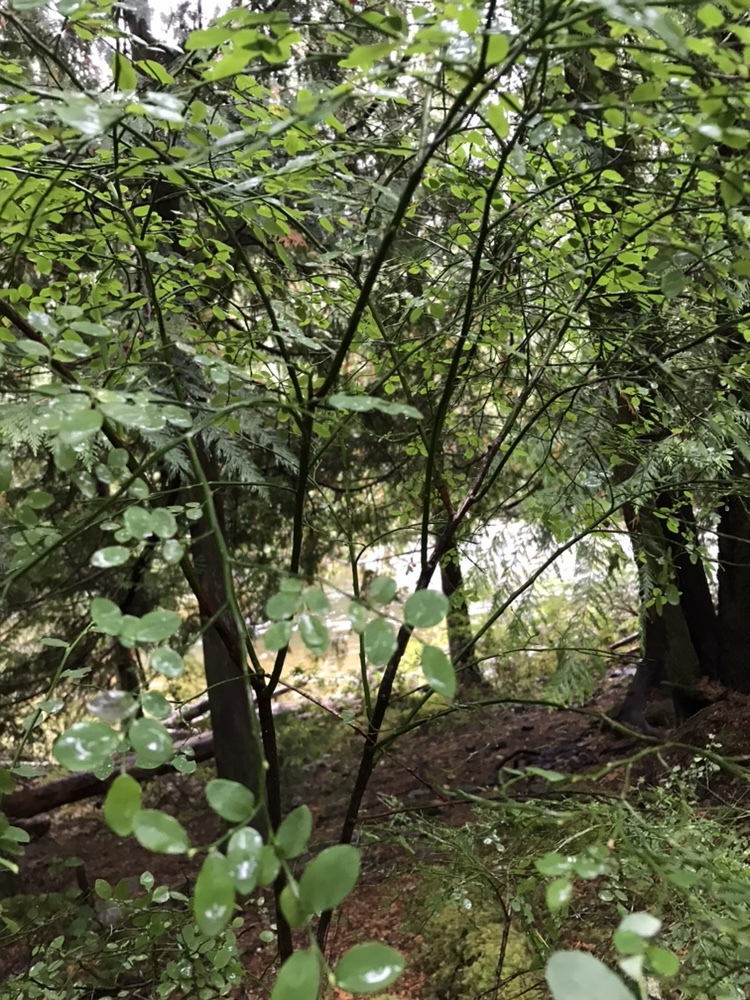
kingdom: Plantae
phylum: Tracheophyta
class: Magnoliopsida
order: Ericales
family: Ericaceae
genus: Vaccinium
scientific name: Vaccinium parvifolium
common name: Red-huckleberry
